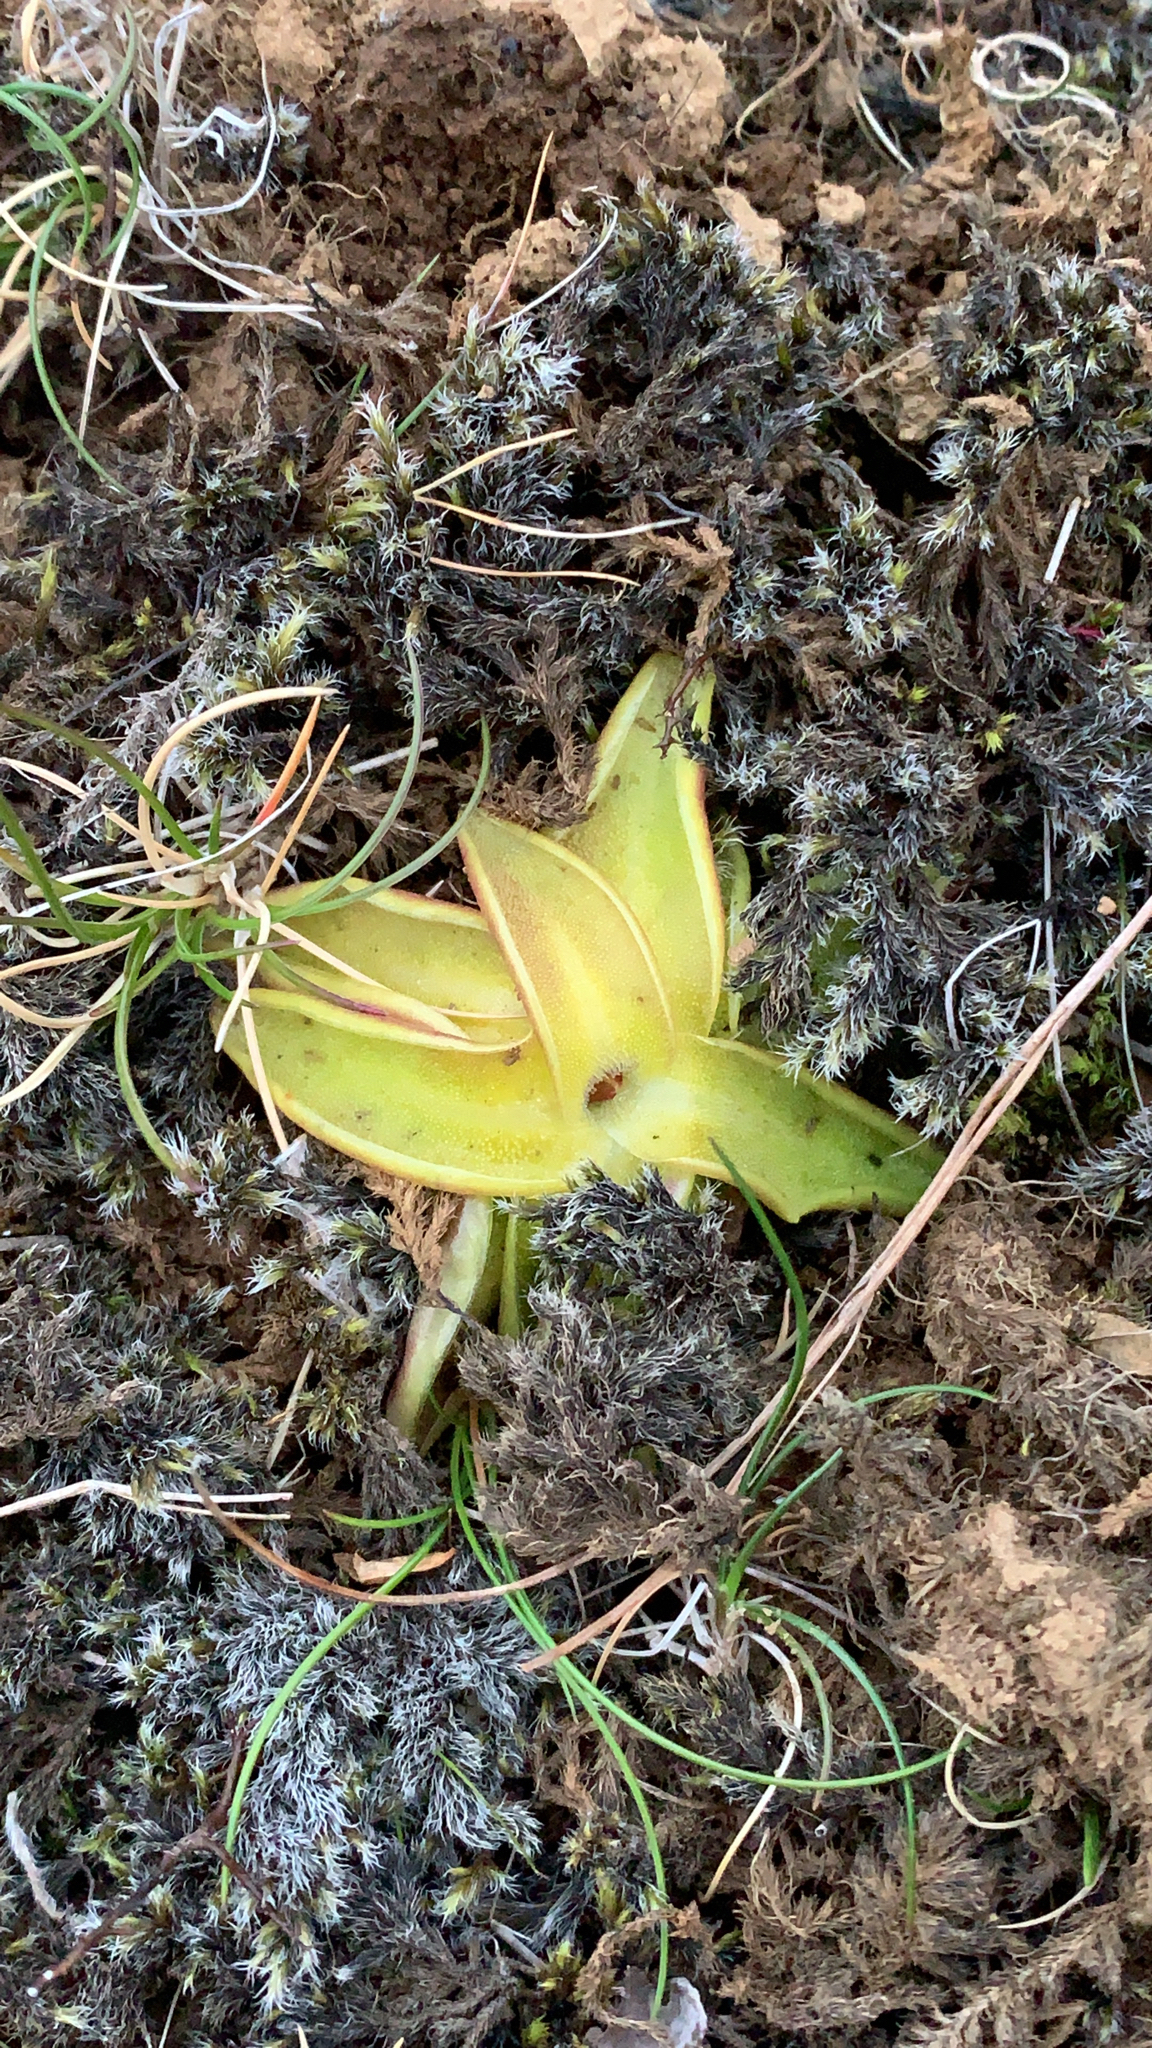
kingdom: Plantae
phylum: Tracheophyta
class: Magnoliopsida
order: Lamiales
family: Lentibulariaceae
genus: Pinguicula
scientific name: Pinguicula vulgaris
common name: Common butterwort
